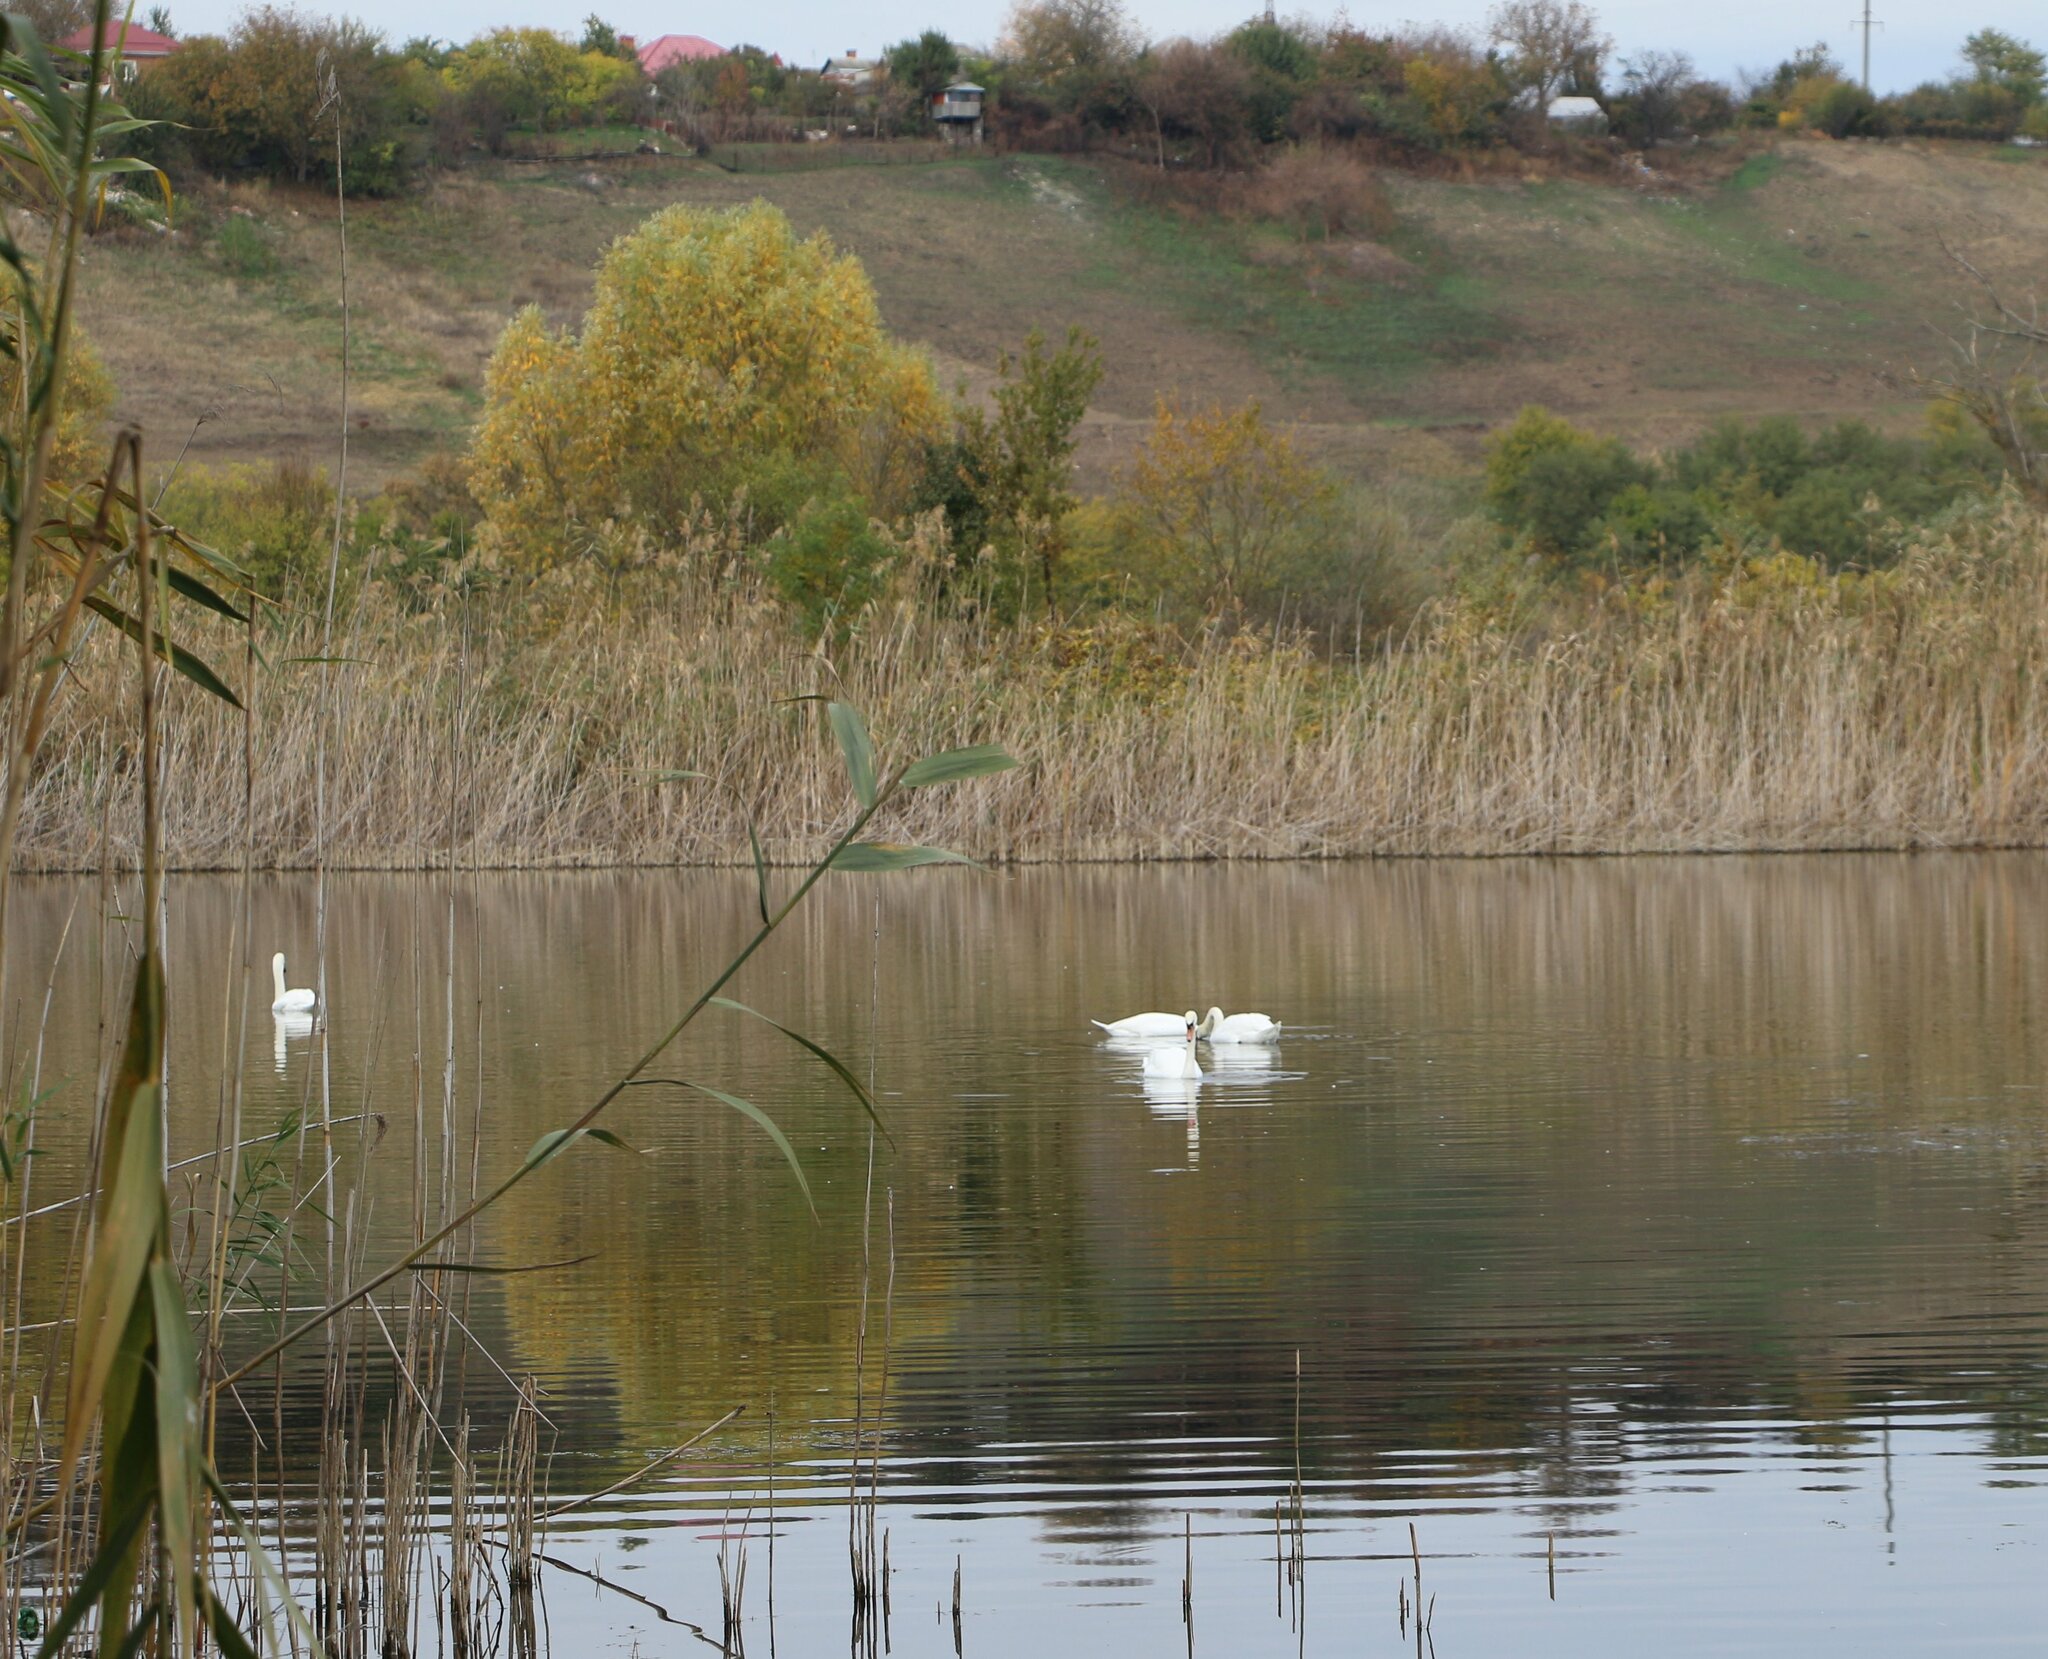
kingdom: Animalia
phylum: Chordata
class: Aves
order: Anseriformes
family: Anatidae
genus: Cygnus
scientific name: Cygnus olor
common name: Mute swan
